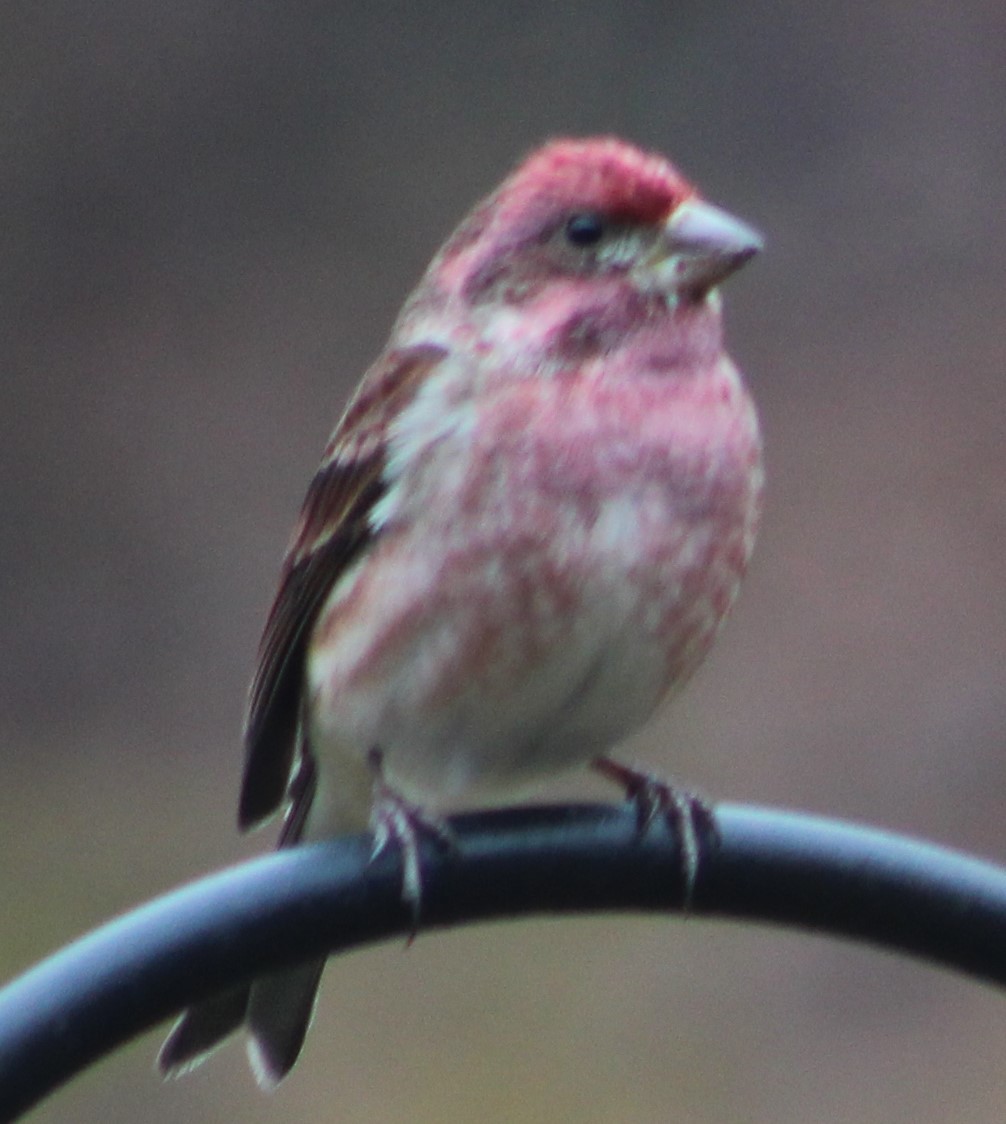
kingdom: Animalia
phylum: Chordata
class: Aves
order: Passeriformes
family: Fringillidae
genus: Haemorhous
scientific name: Haemorhous purpureus
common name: Purple finch
